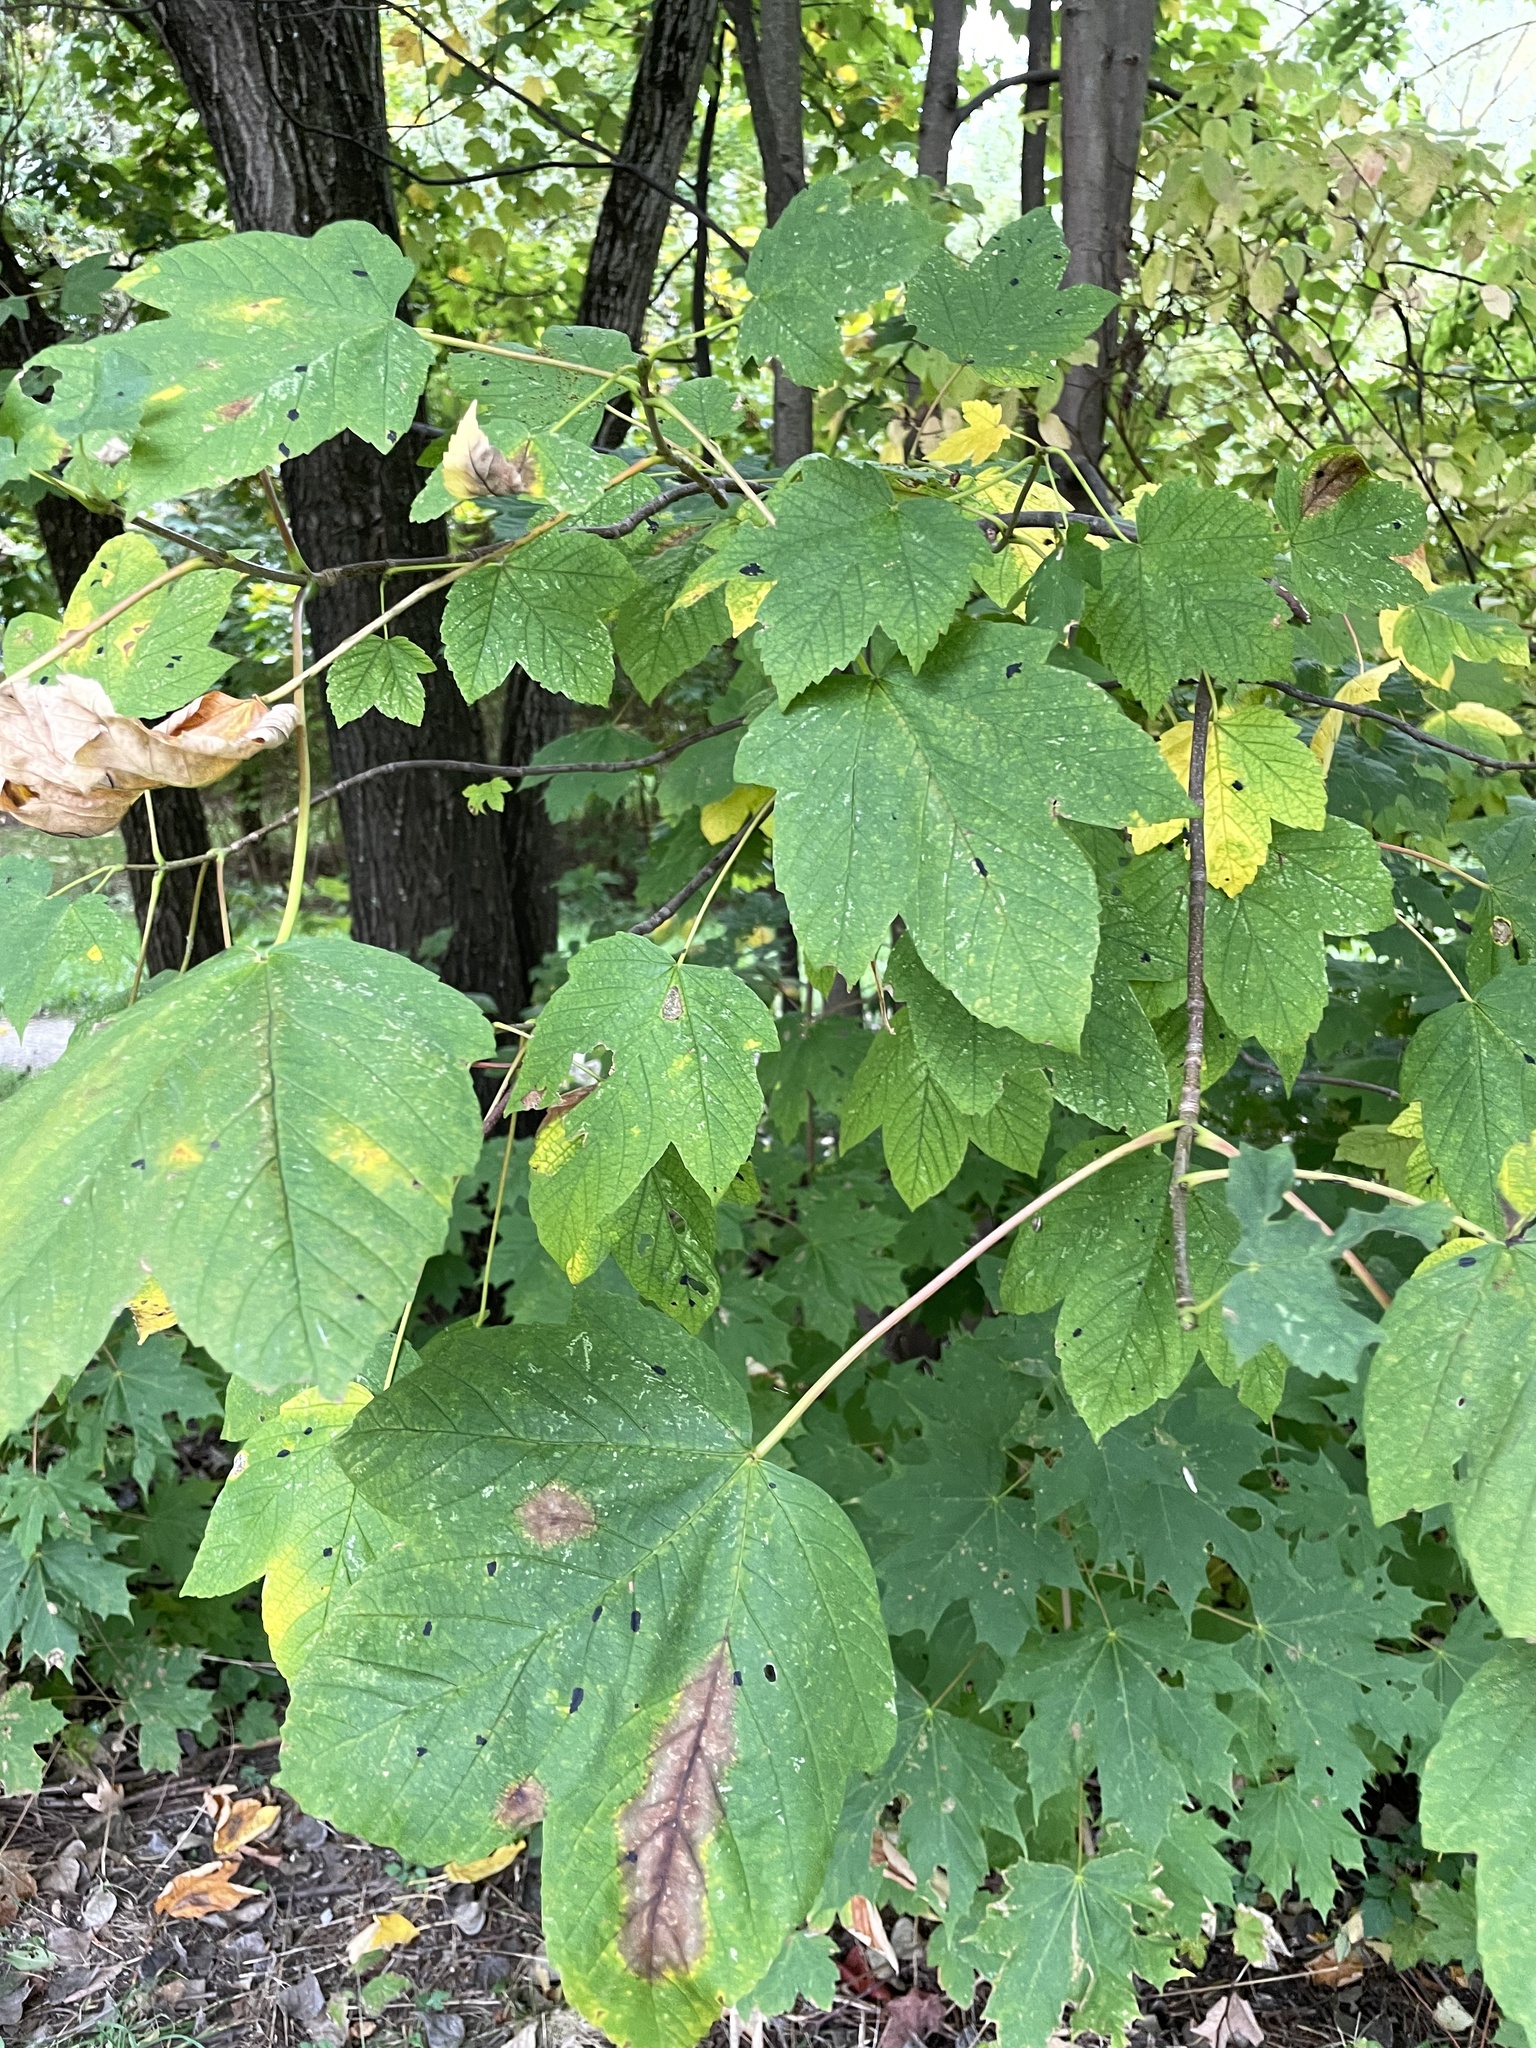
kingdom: Plantae
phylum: Tracheophyta
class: Magnoliopsida
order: Sapindales
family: Sapindaceae
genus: Acer
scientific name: Acer pseudoplatanus
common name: Sycamore
